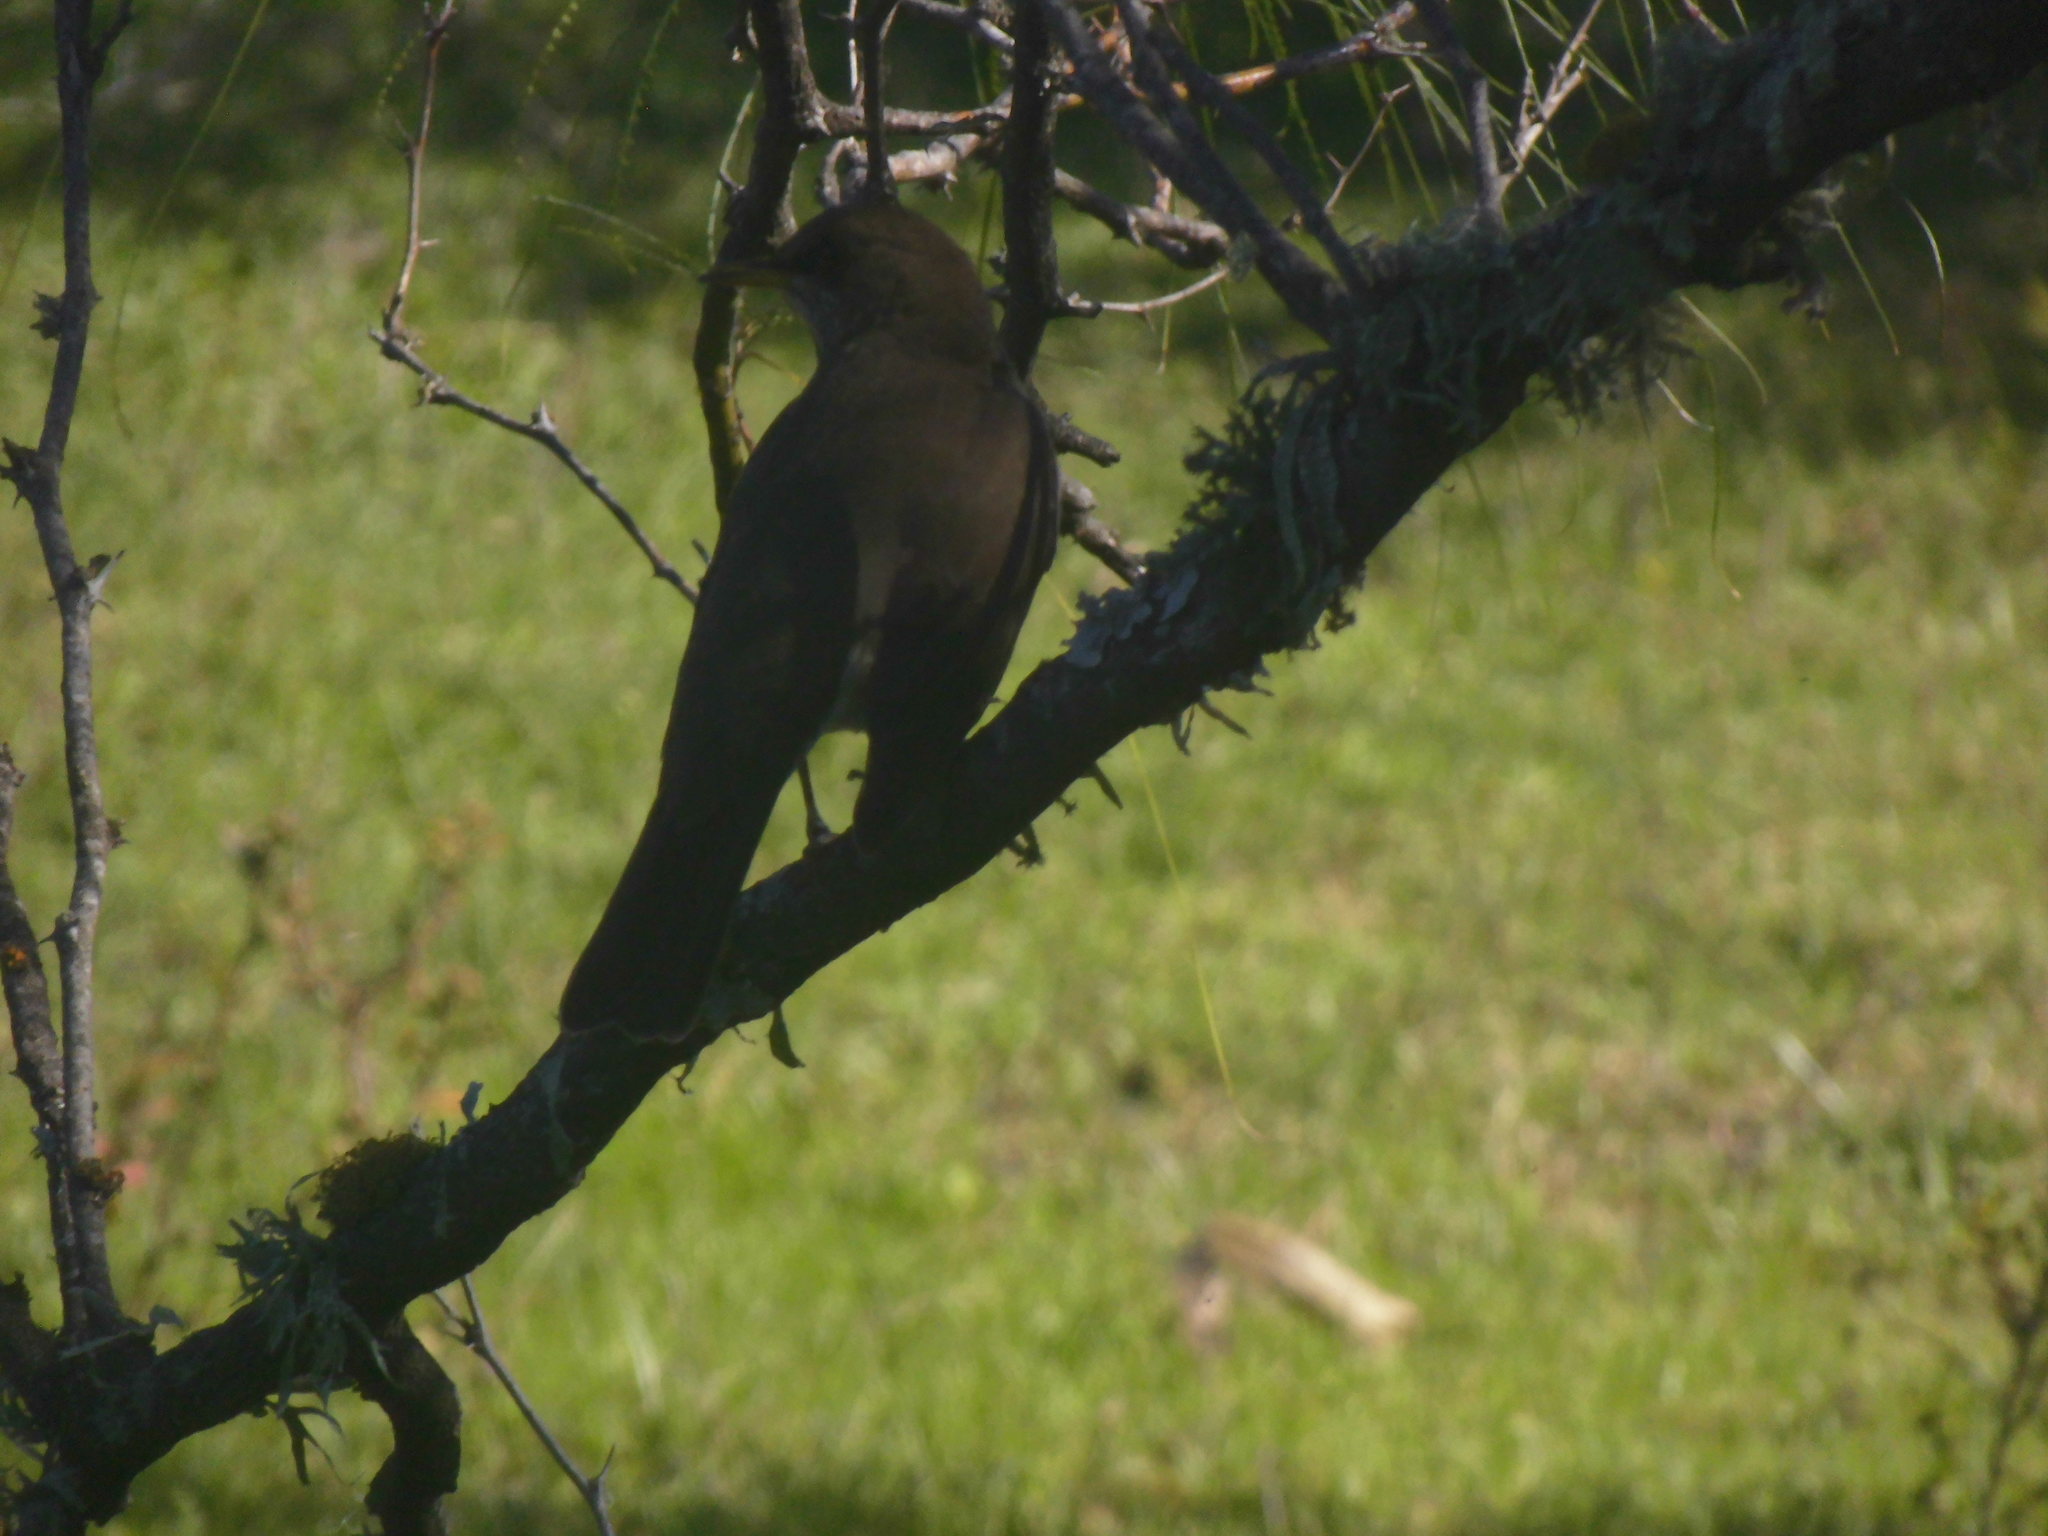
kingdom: Animalia
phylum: Chordata
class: Aves
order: Passeriformes
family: Turdidae
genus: Turdus
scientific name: Turdus amaurochalinus
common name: Creamy-bellied thrush
